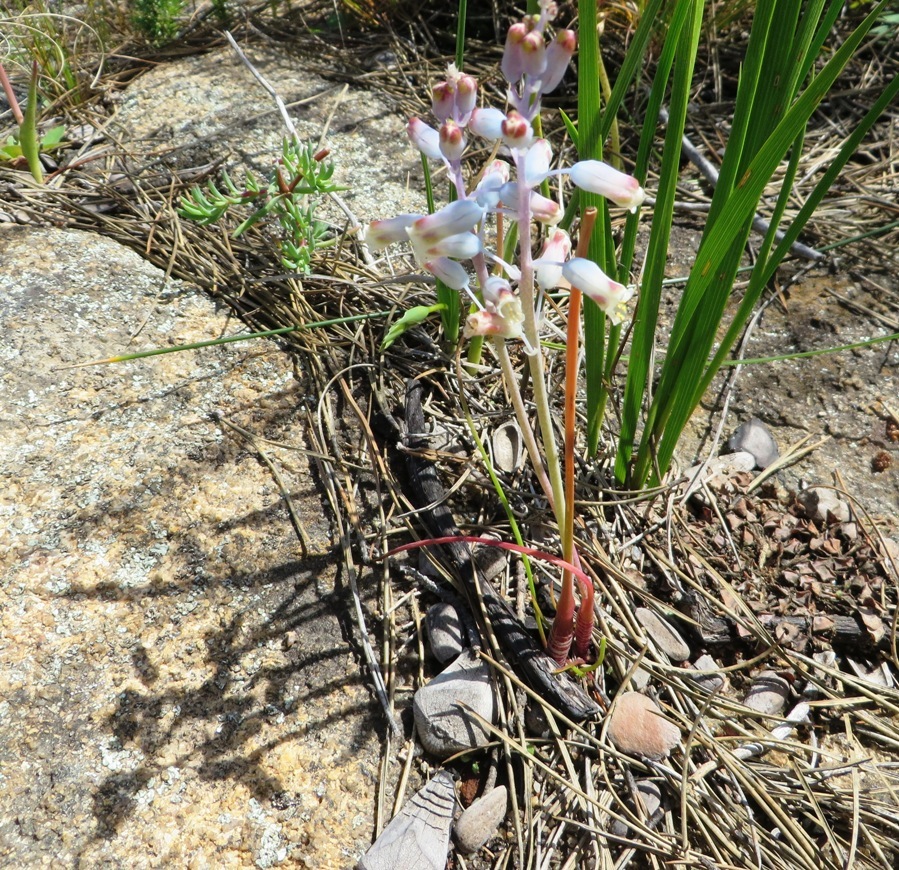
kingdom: Plantae
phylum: Tracheophyta
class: Liliopsida
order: Asparagales
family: Asparagaceae
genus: Lachenalia
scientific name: Lachenalia unifolia
